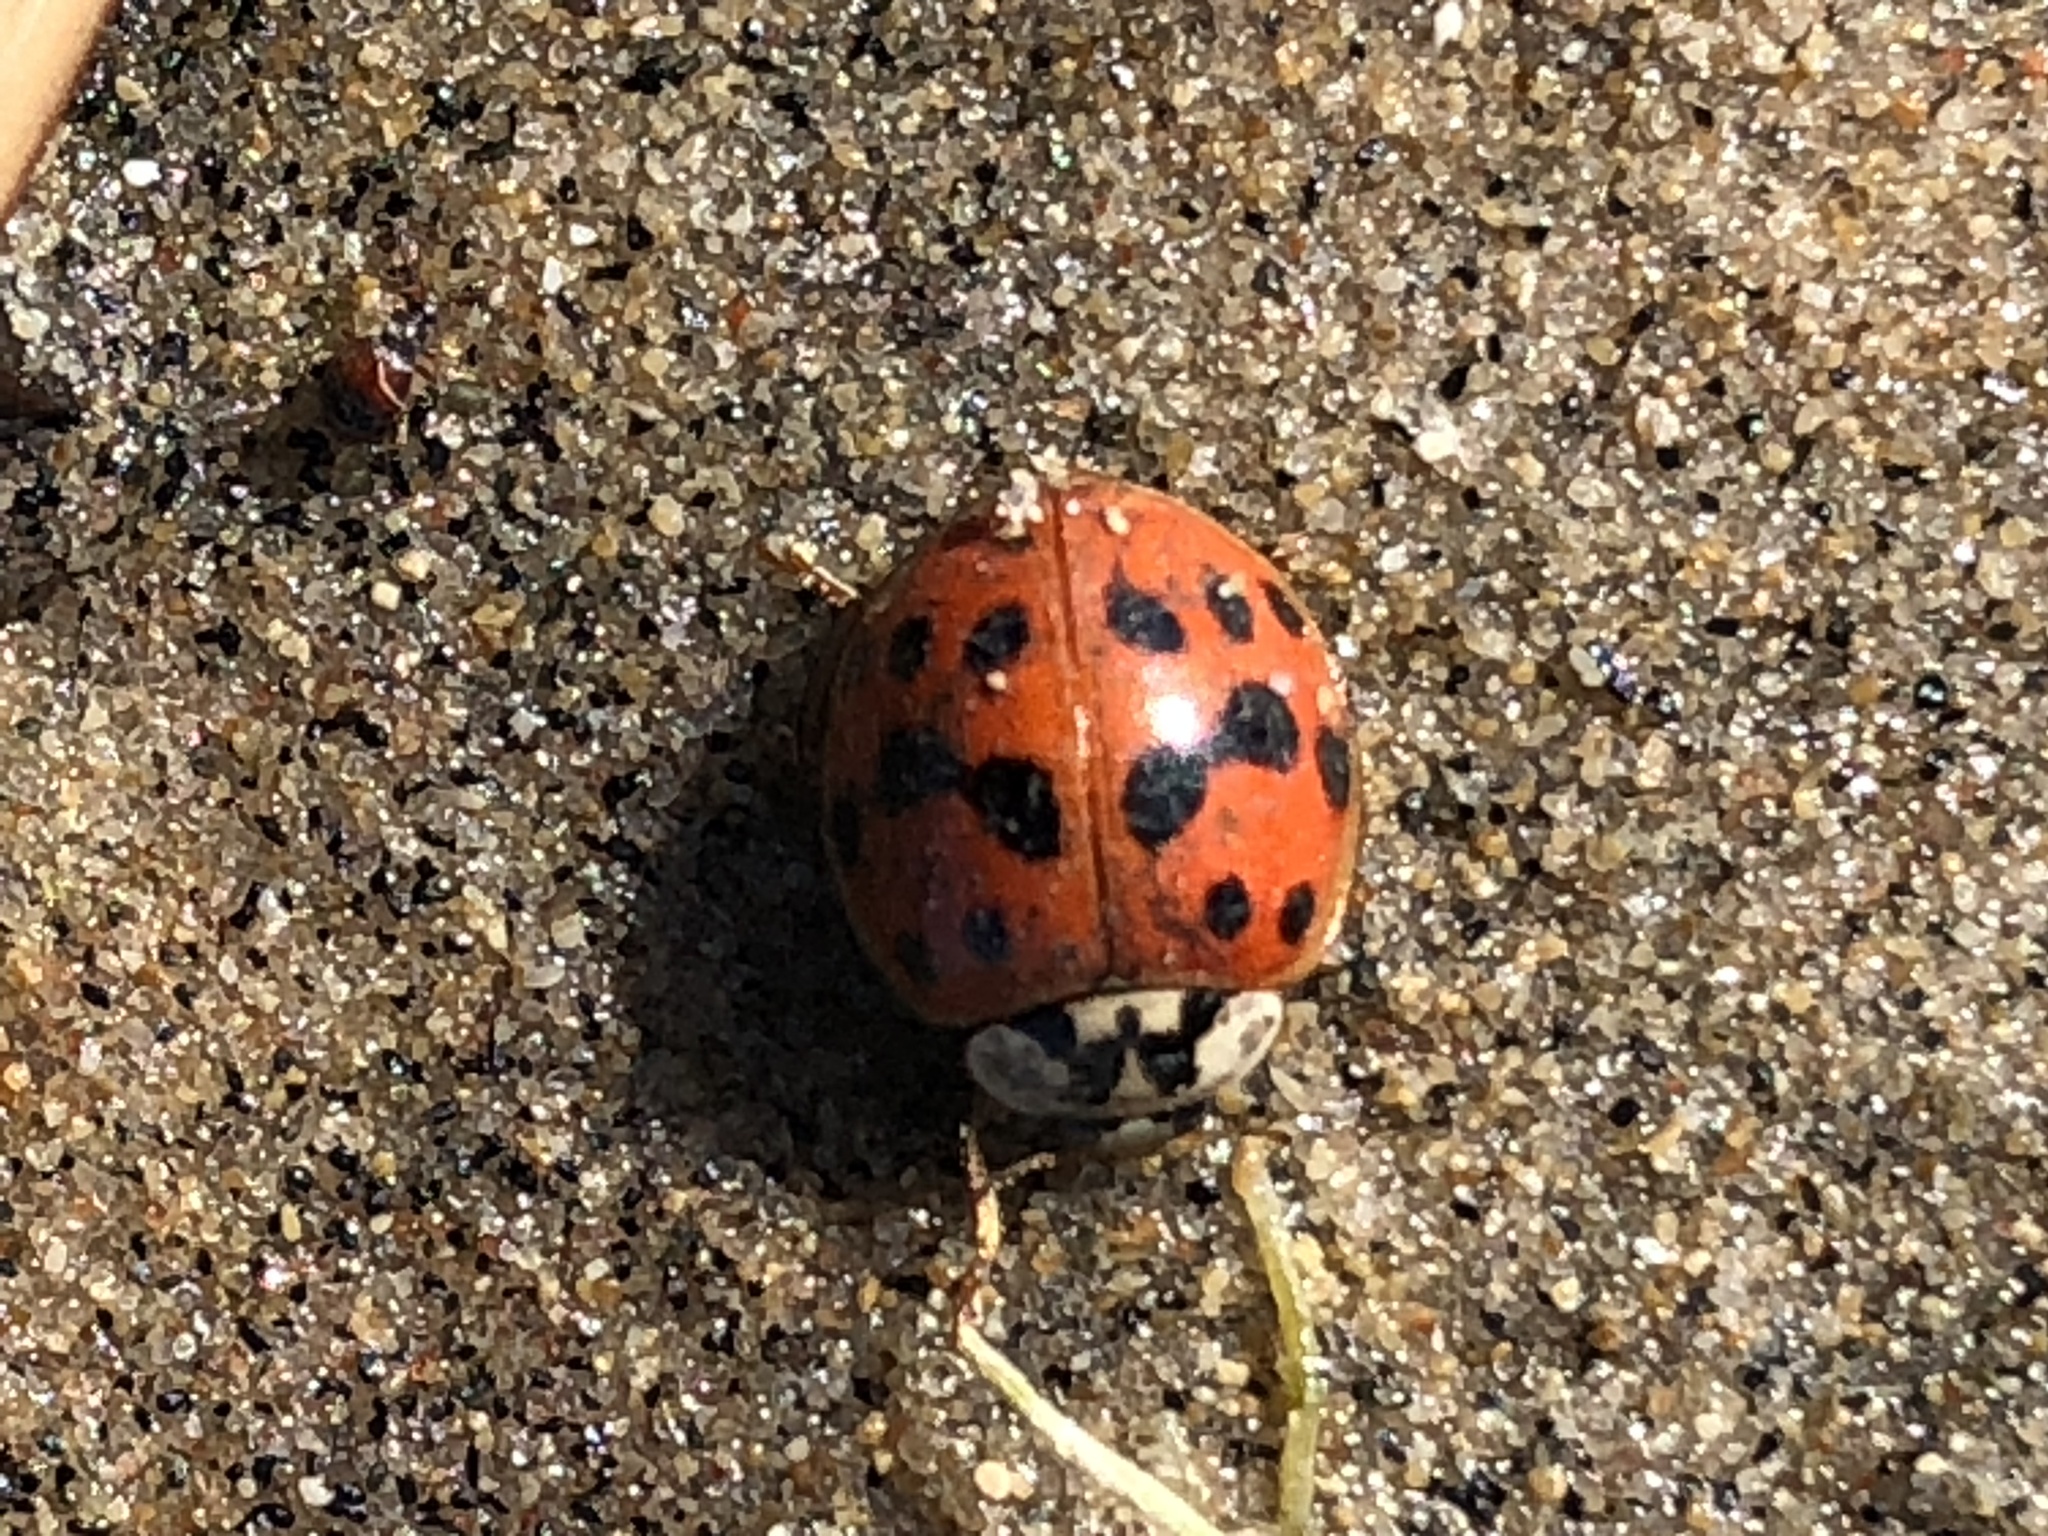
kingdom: Animalia
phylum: Arthropoda
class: Insecta
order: Coleoptera
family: Coccinellidae
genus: Harmonia
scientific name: Harmonia axyridis
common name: Harlequin ladybird
